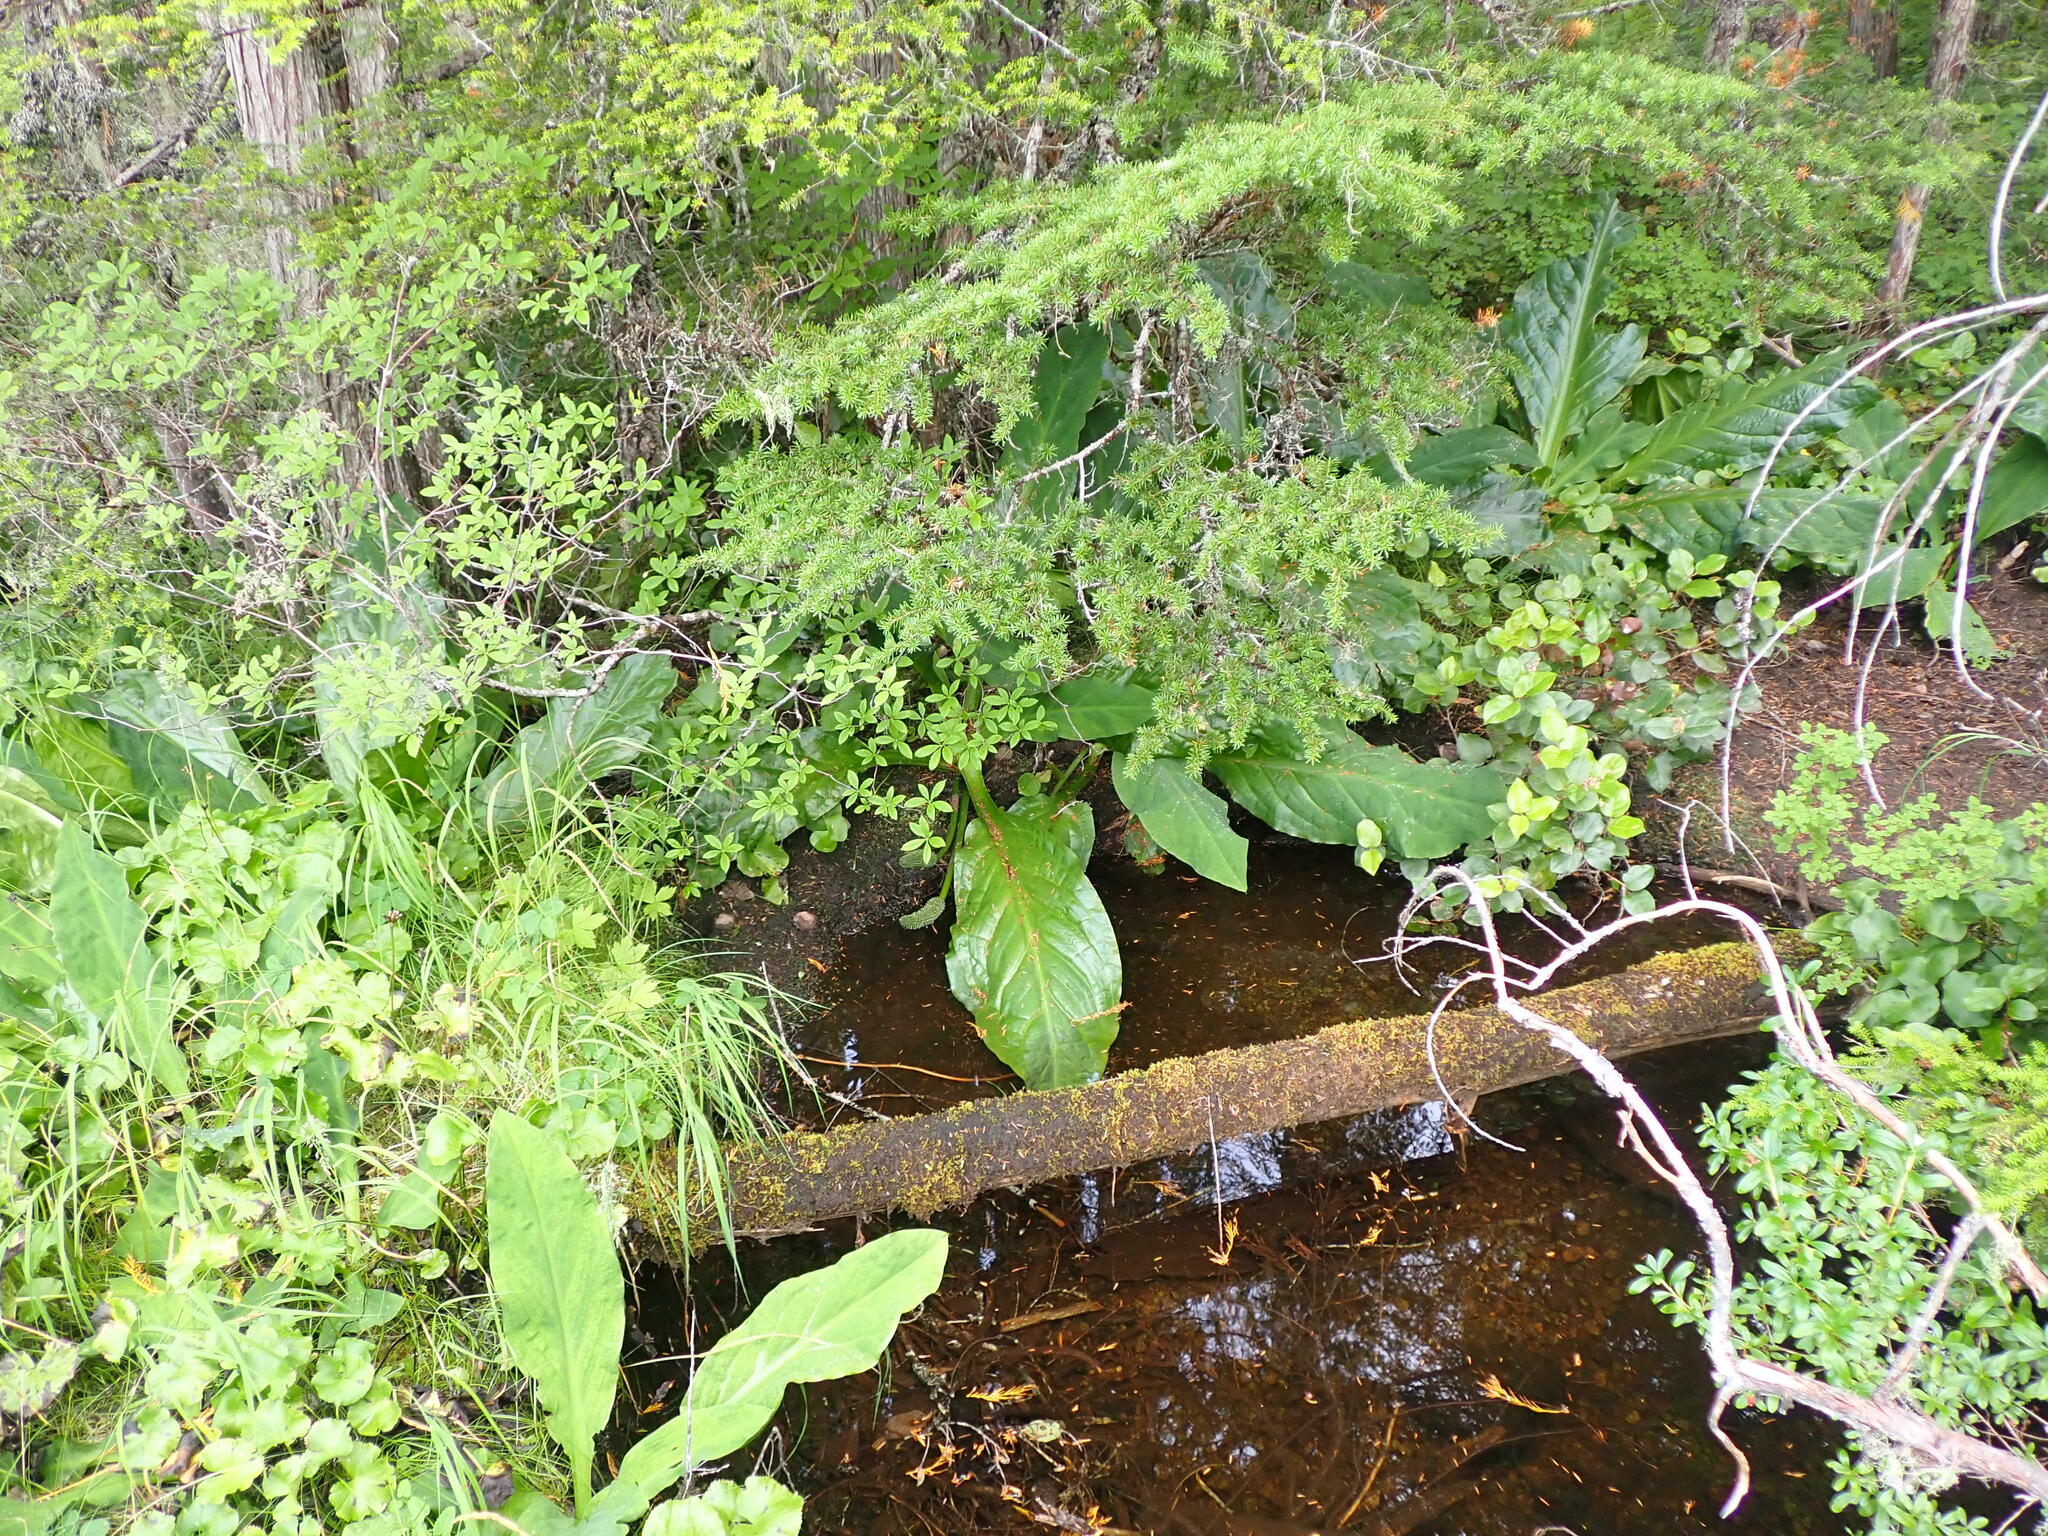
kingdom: Plantae
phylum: Tracheophyta
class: Liliopsida
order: Alismatales
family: Araceae
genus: Lysichiton
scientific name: Lysichiton americanus
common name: American skunk cabbage
